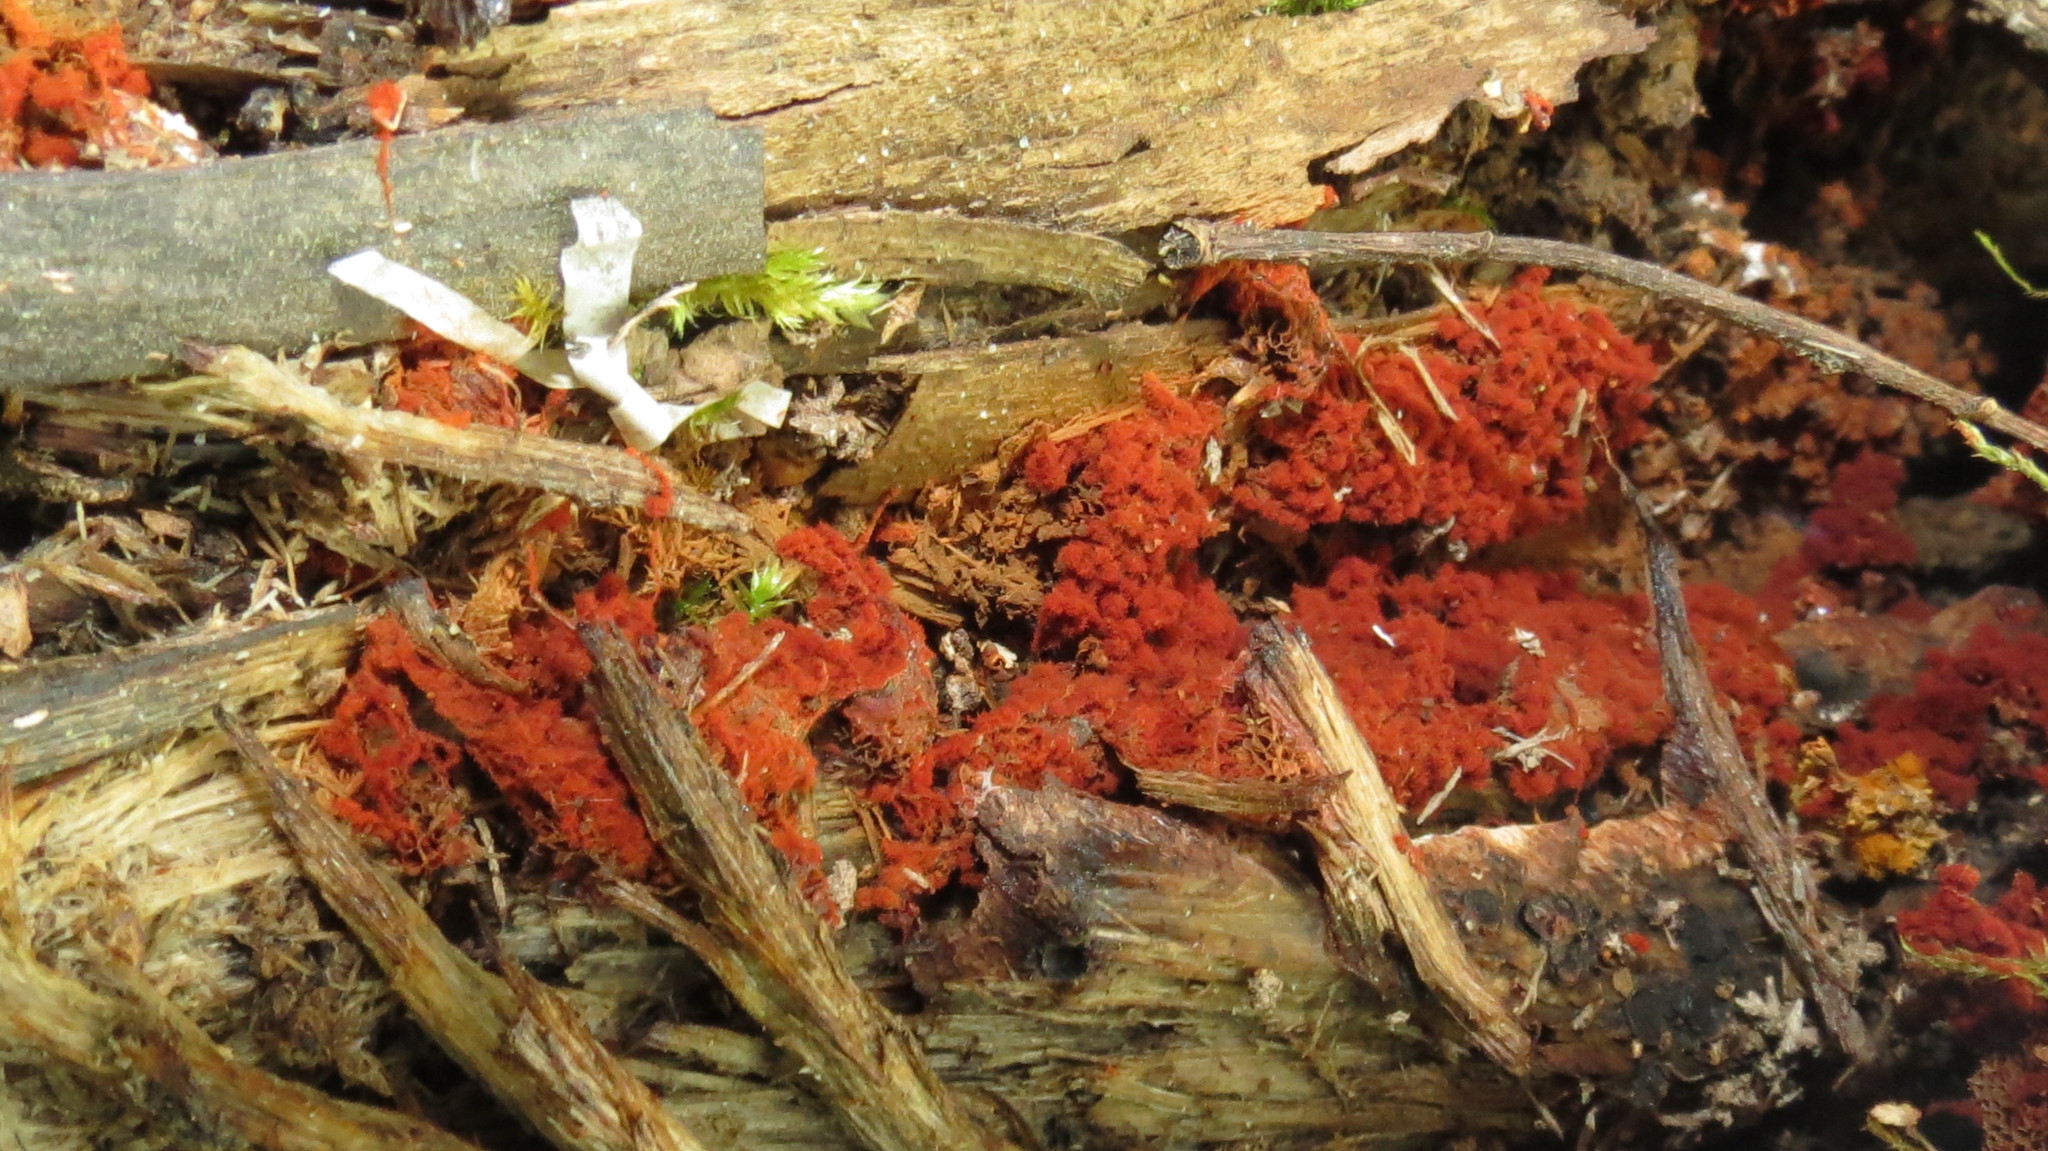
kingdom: Protozoa
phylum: Mycetozoa
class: Myxomycetes
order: Trichiales
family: Trichiaceae
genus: Metatrichia
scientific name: Metatrichia vesparia
